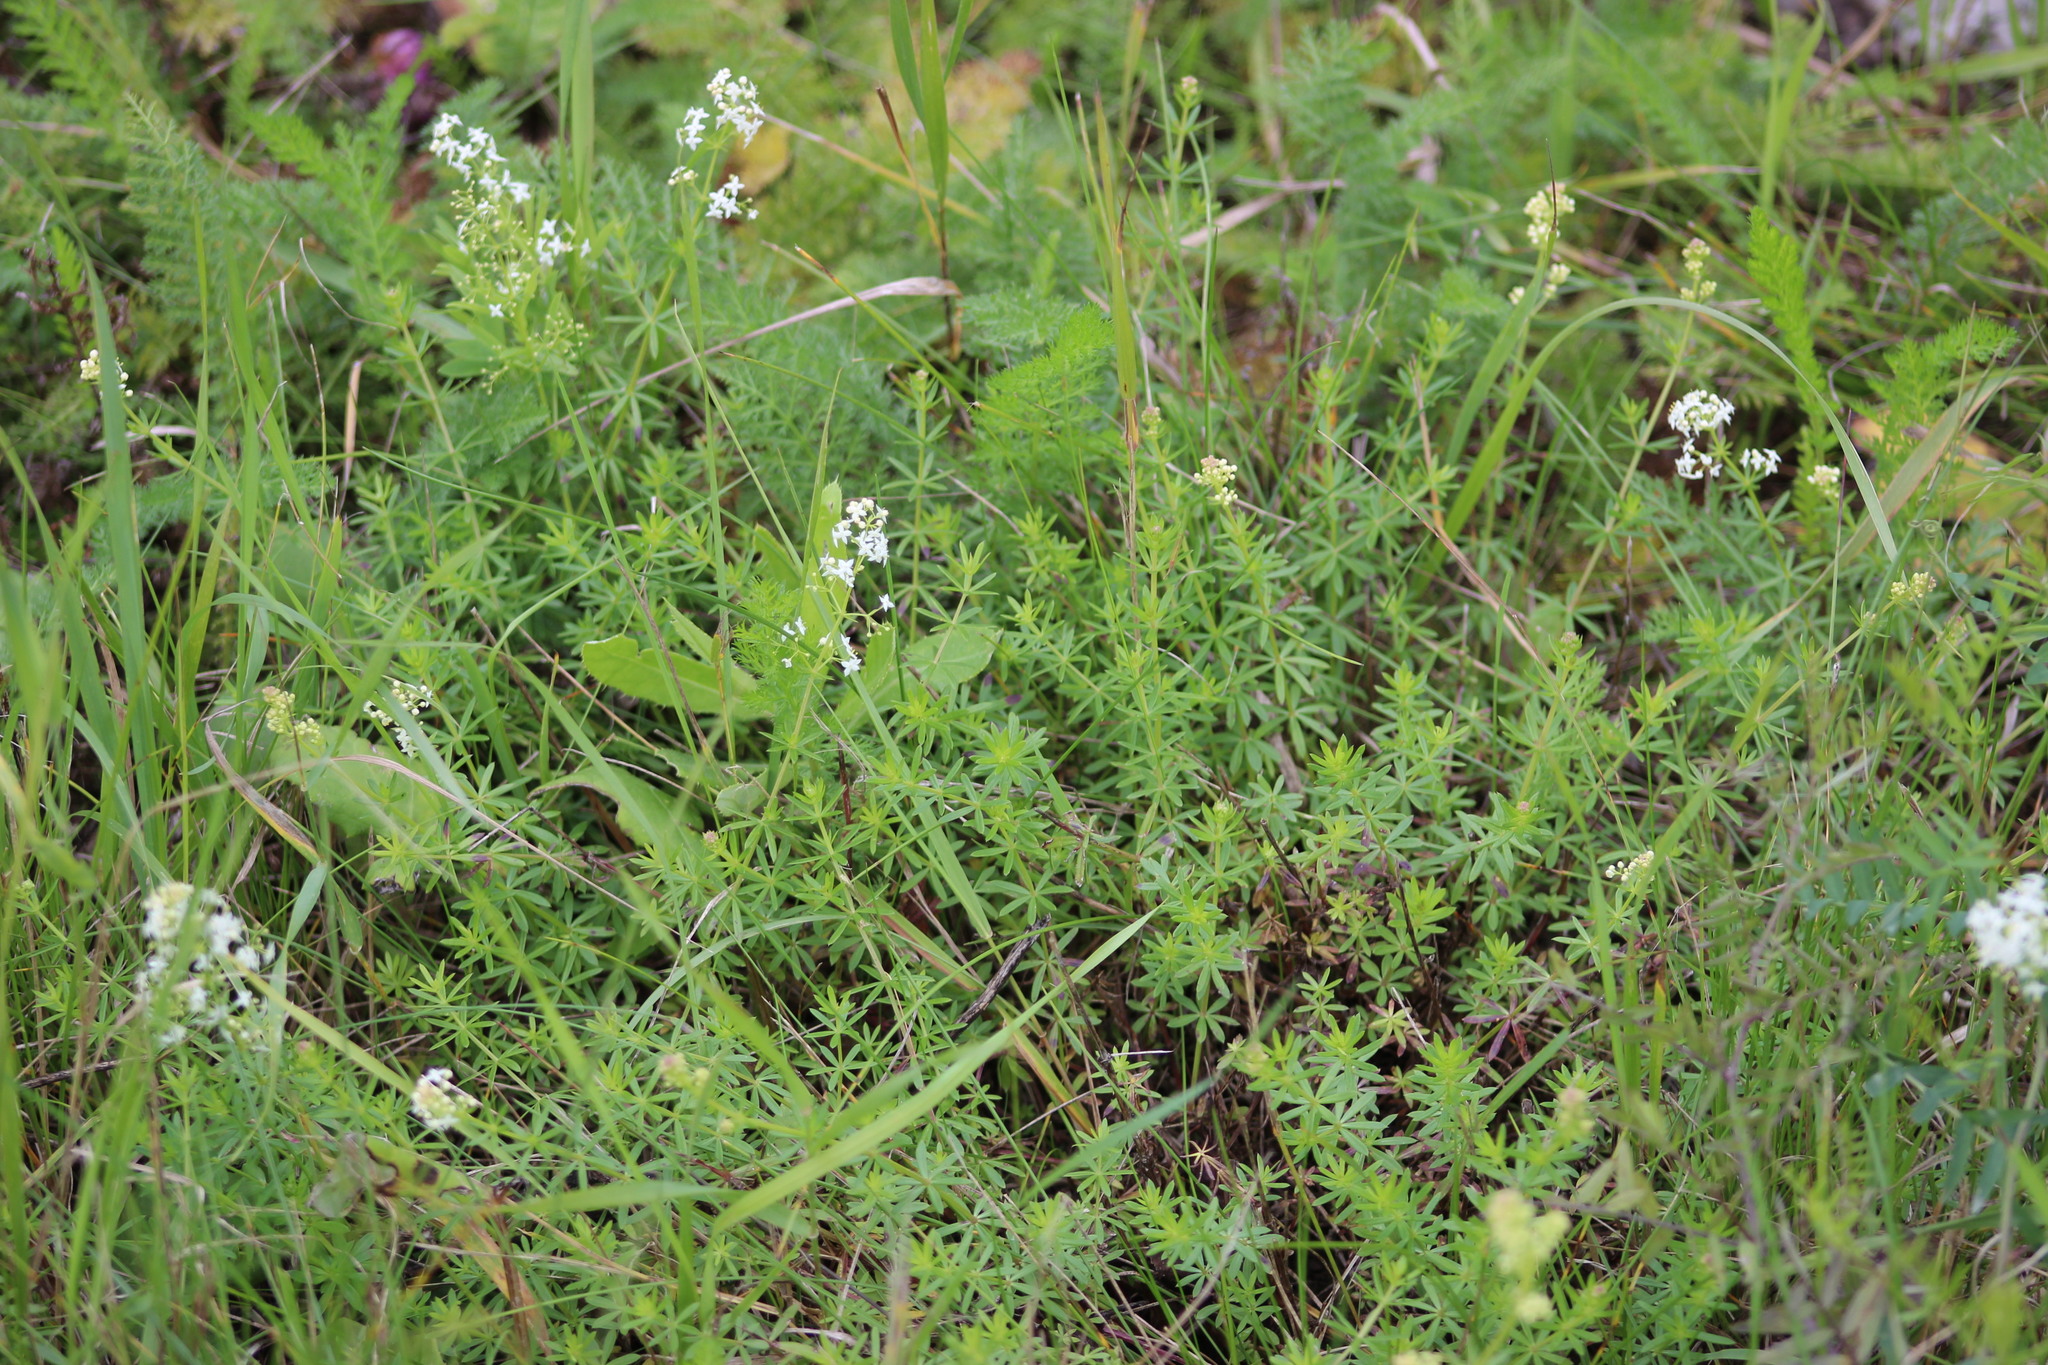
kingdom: Plantae
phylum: Tracheophyta
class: Magnoliopsida
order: Gentianales
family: Rubiaceae
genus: Galium
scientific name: Galium mollugo
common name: Hedge bedstraw
